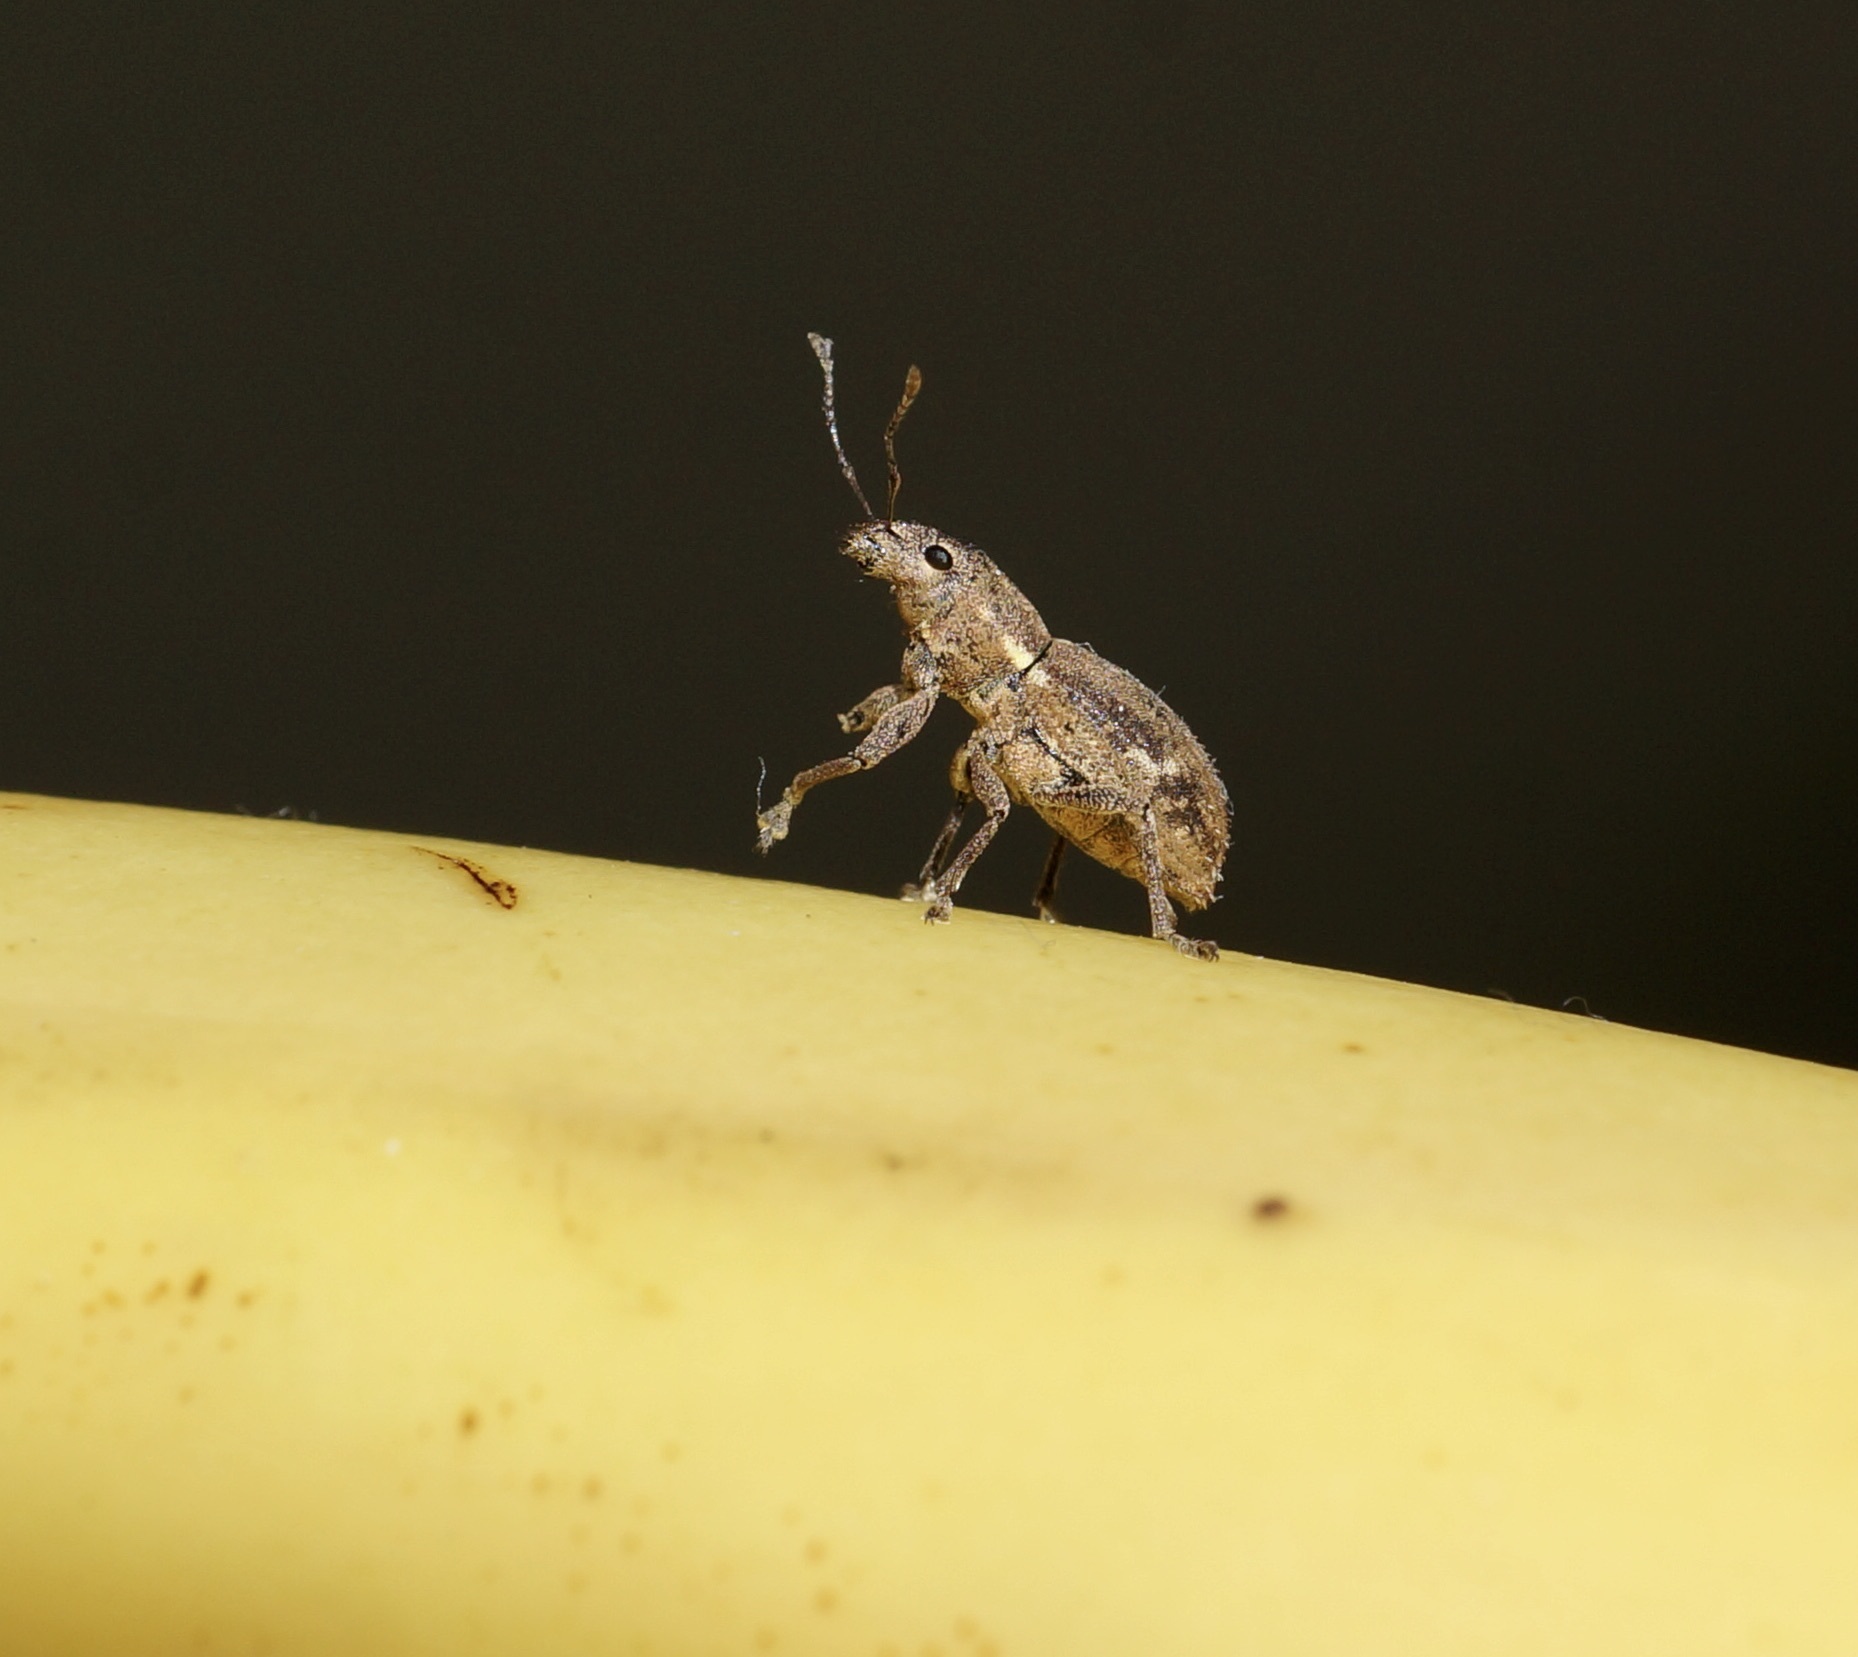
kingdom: Animalia
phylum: Arthropoda
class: Insecta
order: Coleoptera
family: Curculionidae
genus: Naupactus
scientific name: Naupactus cervinus
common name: Fuller rose beetle
